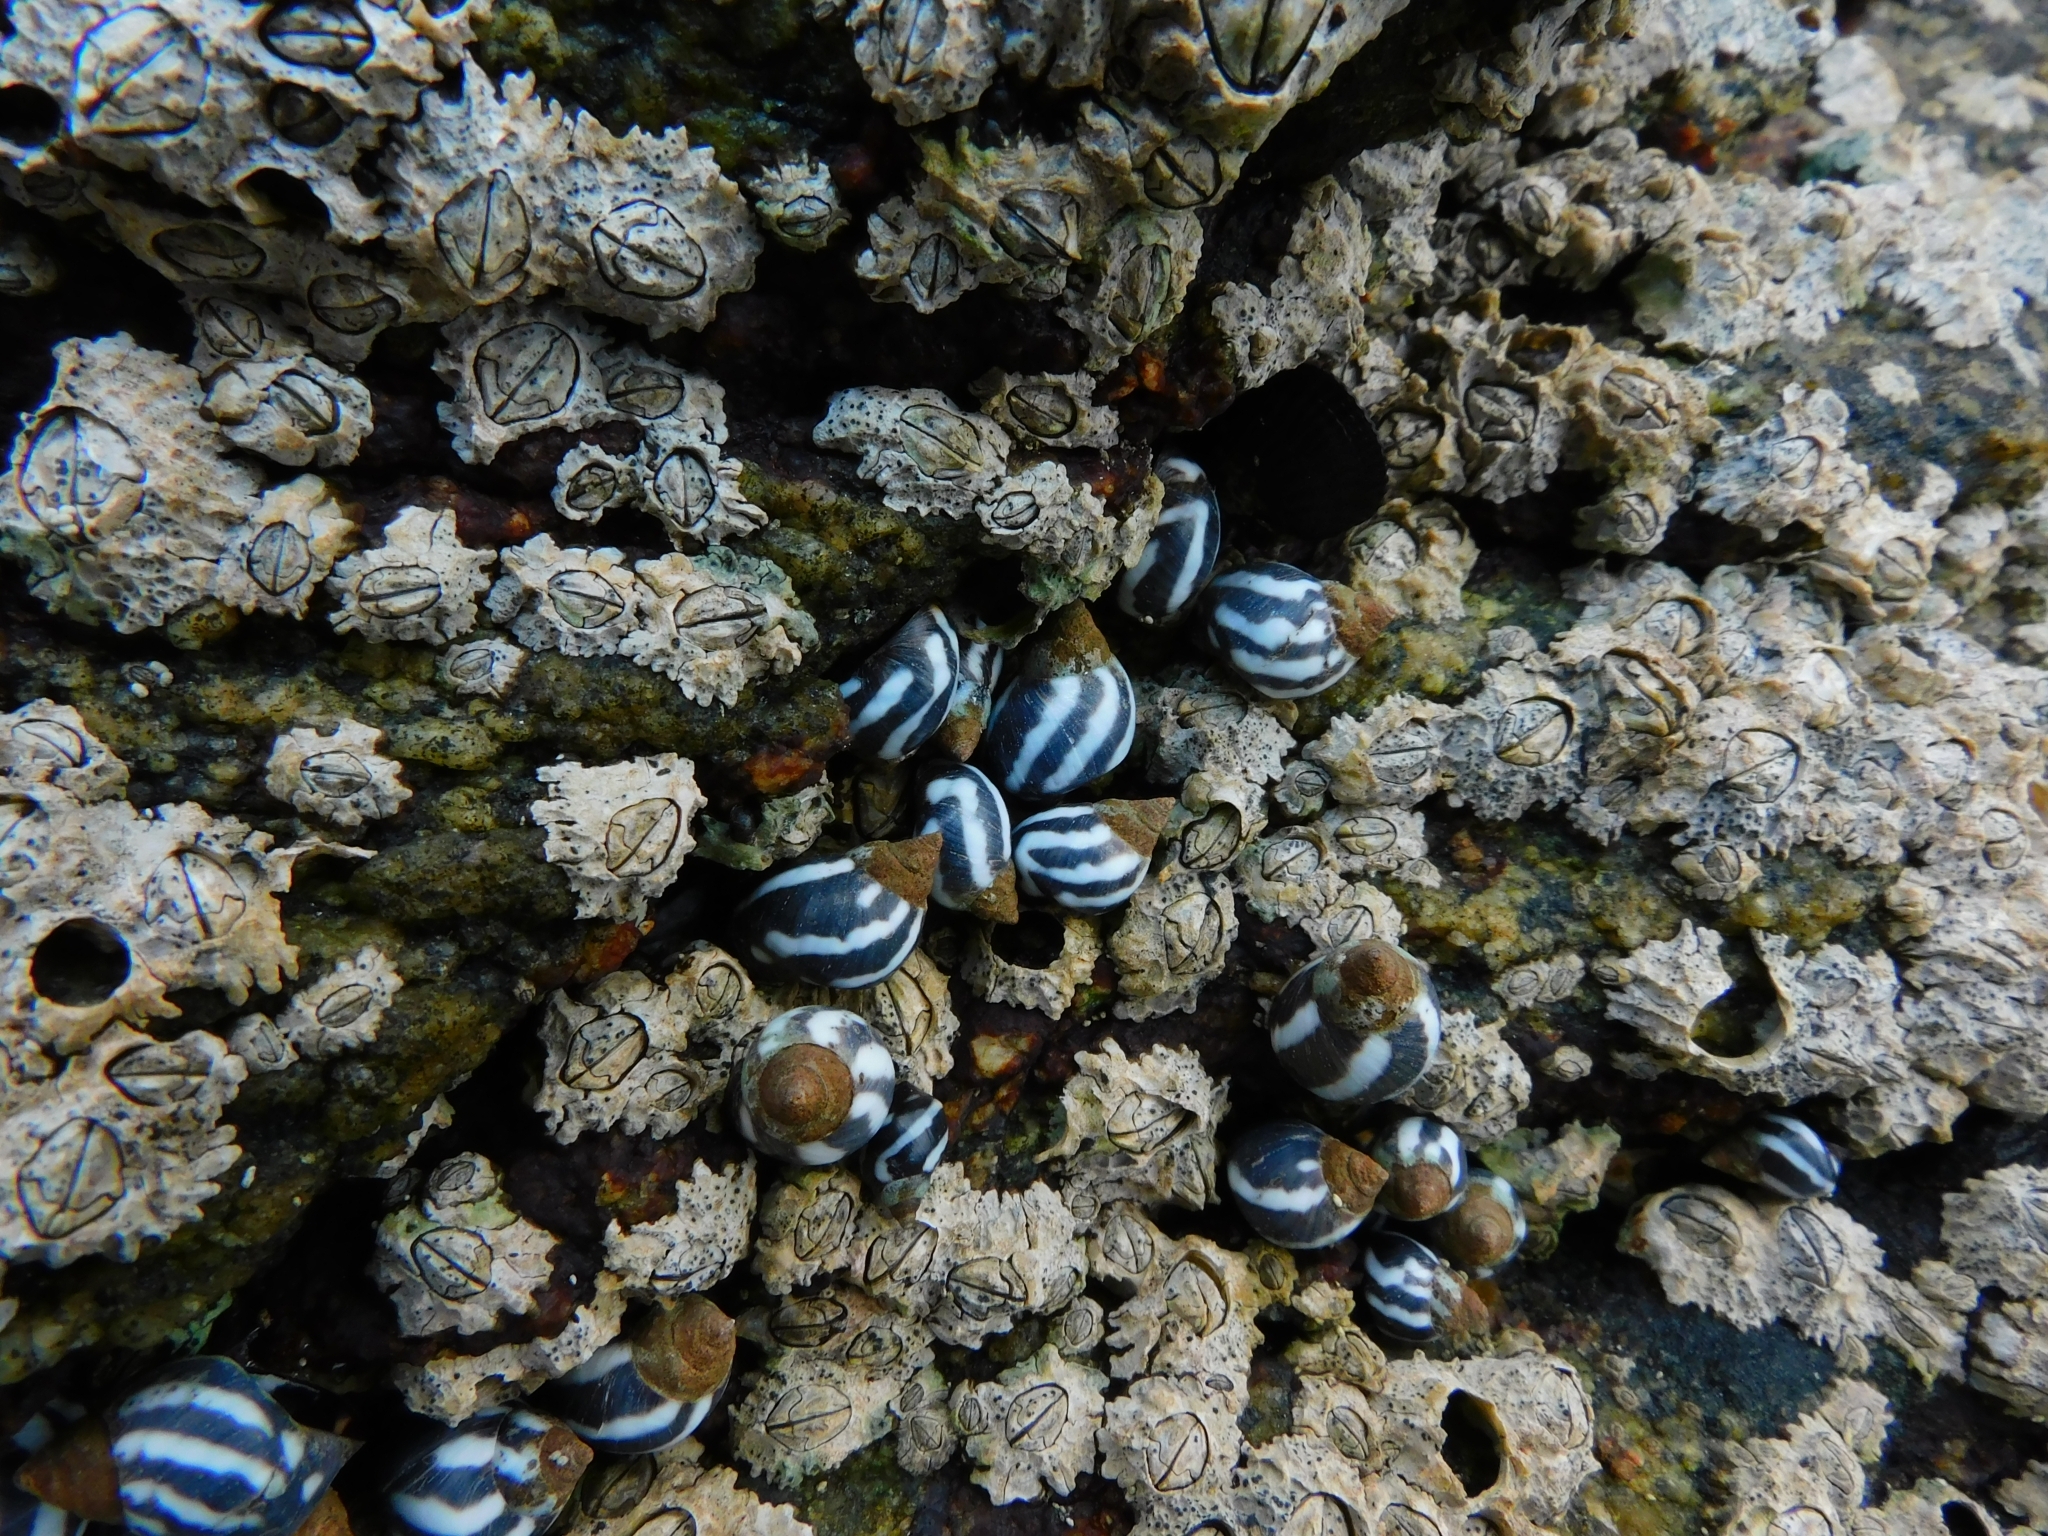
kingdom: Animalia
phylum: Mollusca
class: Gastropoda
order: Littorinimorpha
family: Littorinidae
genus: Echinolittorina
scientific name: Echinolittorina peruviana
